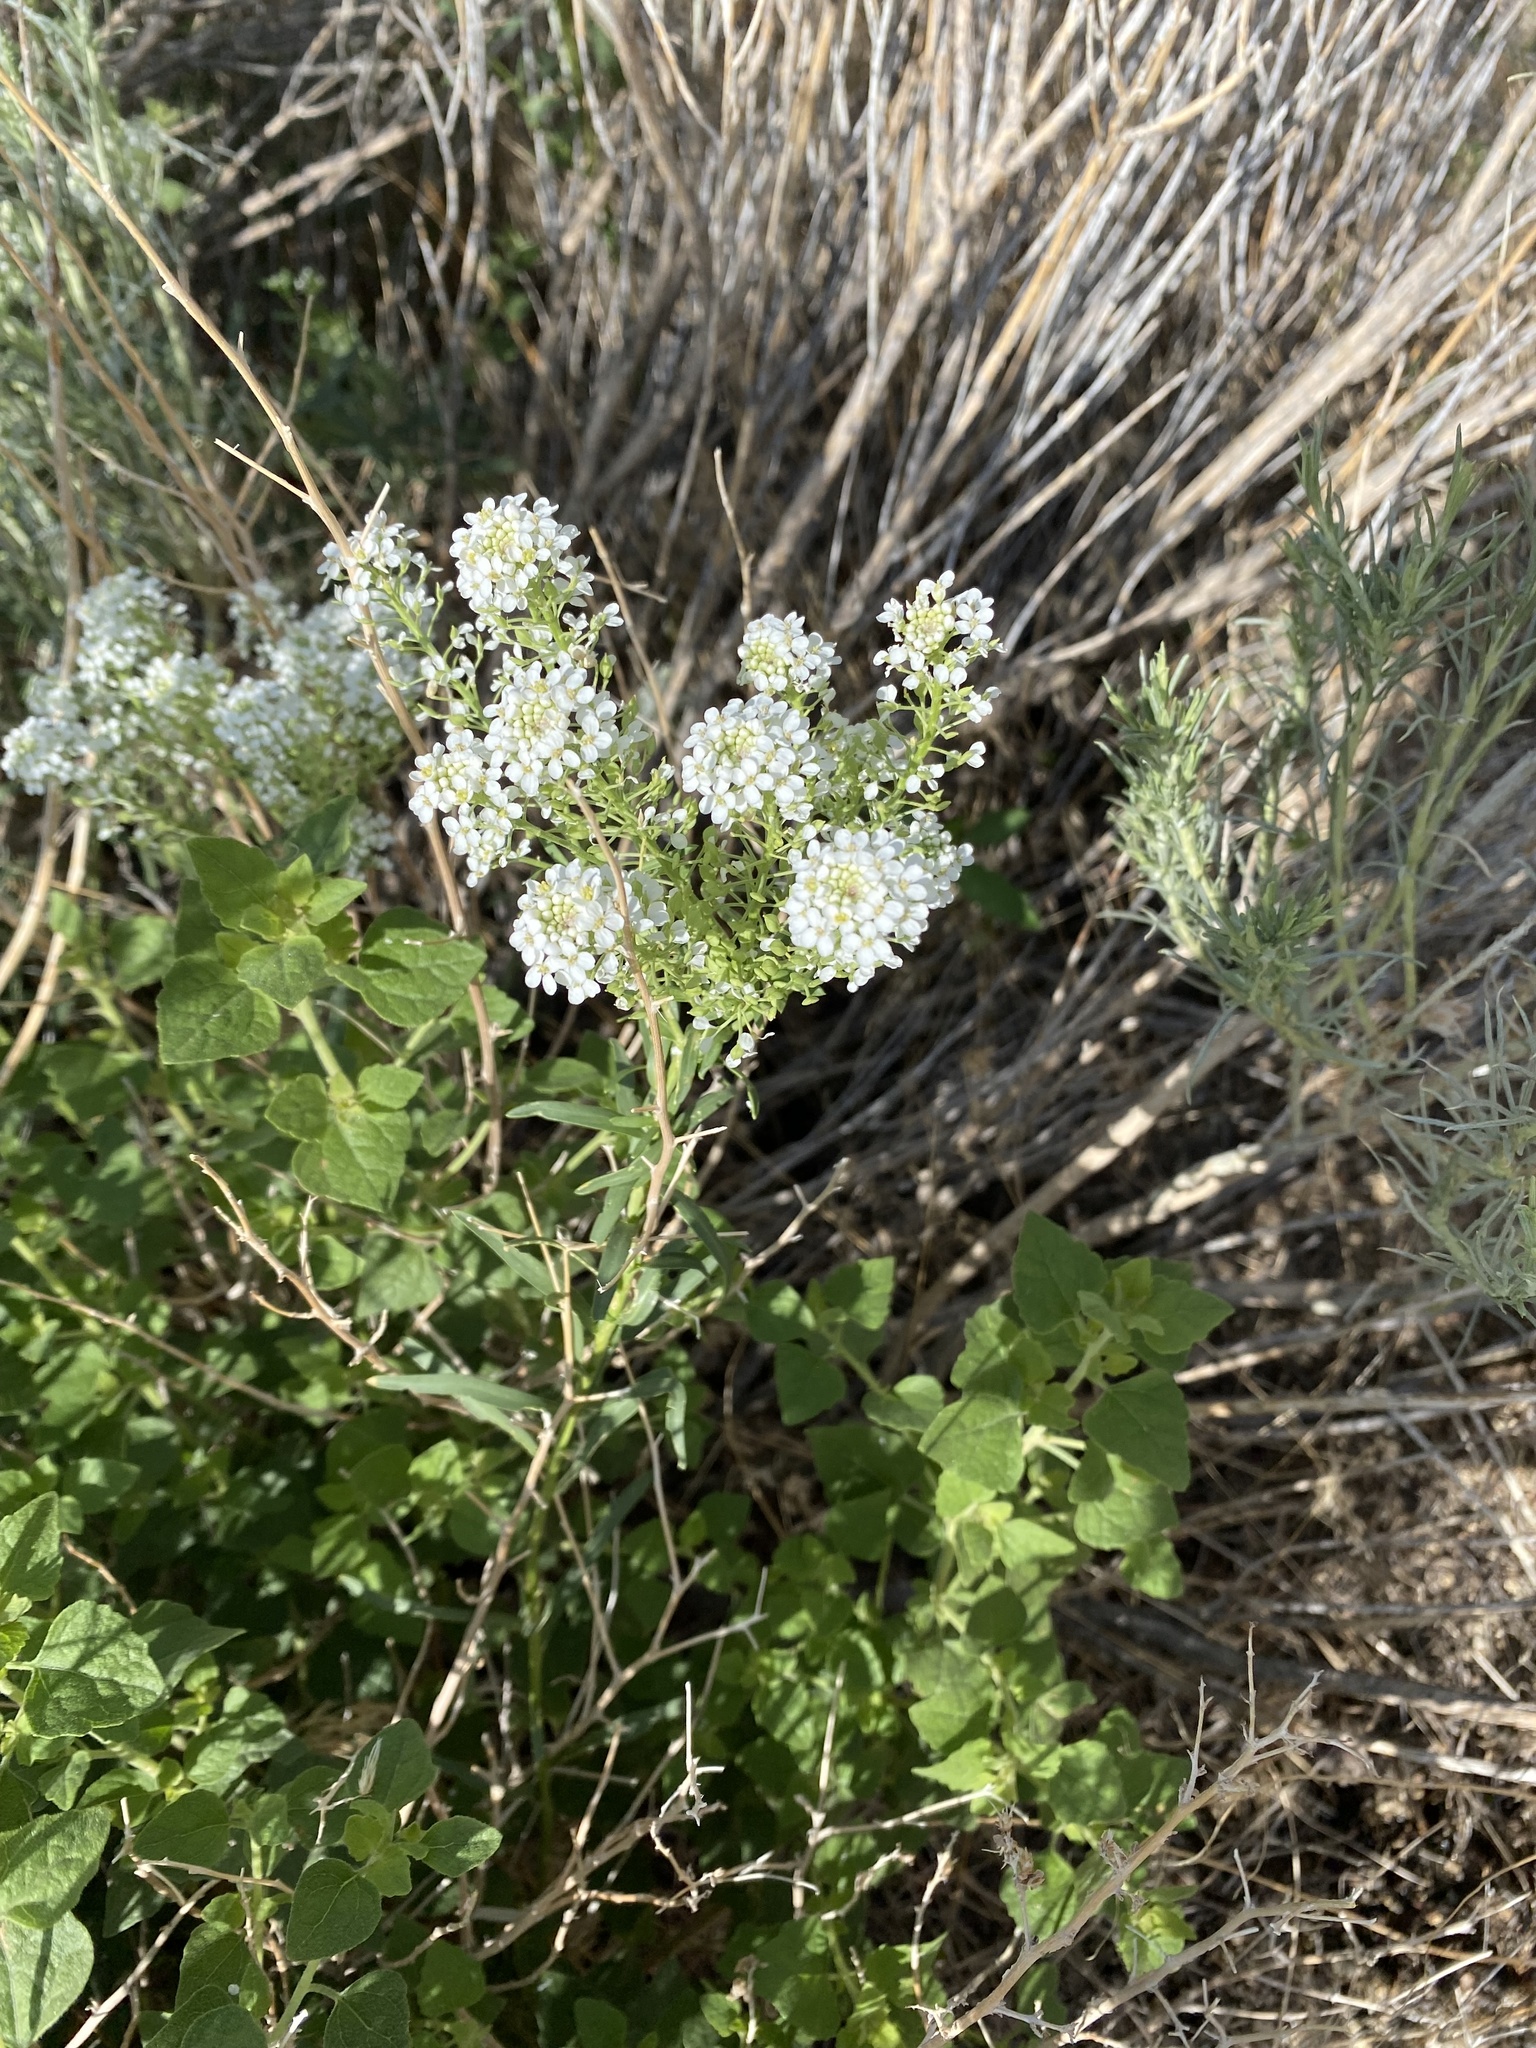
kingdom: Plantae
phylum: Tracheophyta
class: Magnoliopsida
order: Brassicales
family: Brassicaceae
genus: Lepidium
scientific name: Lepidium
